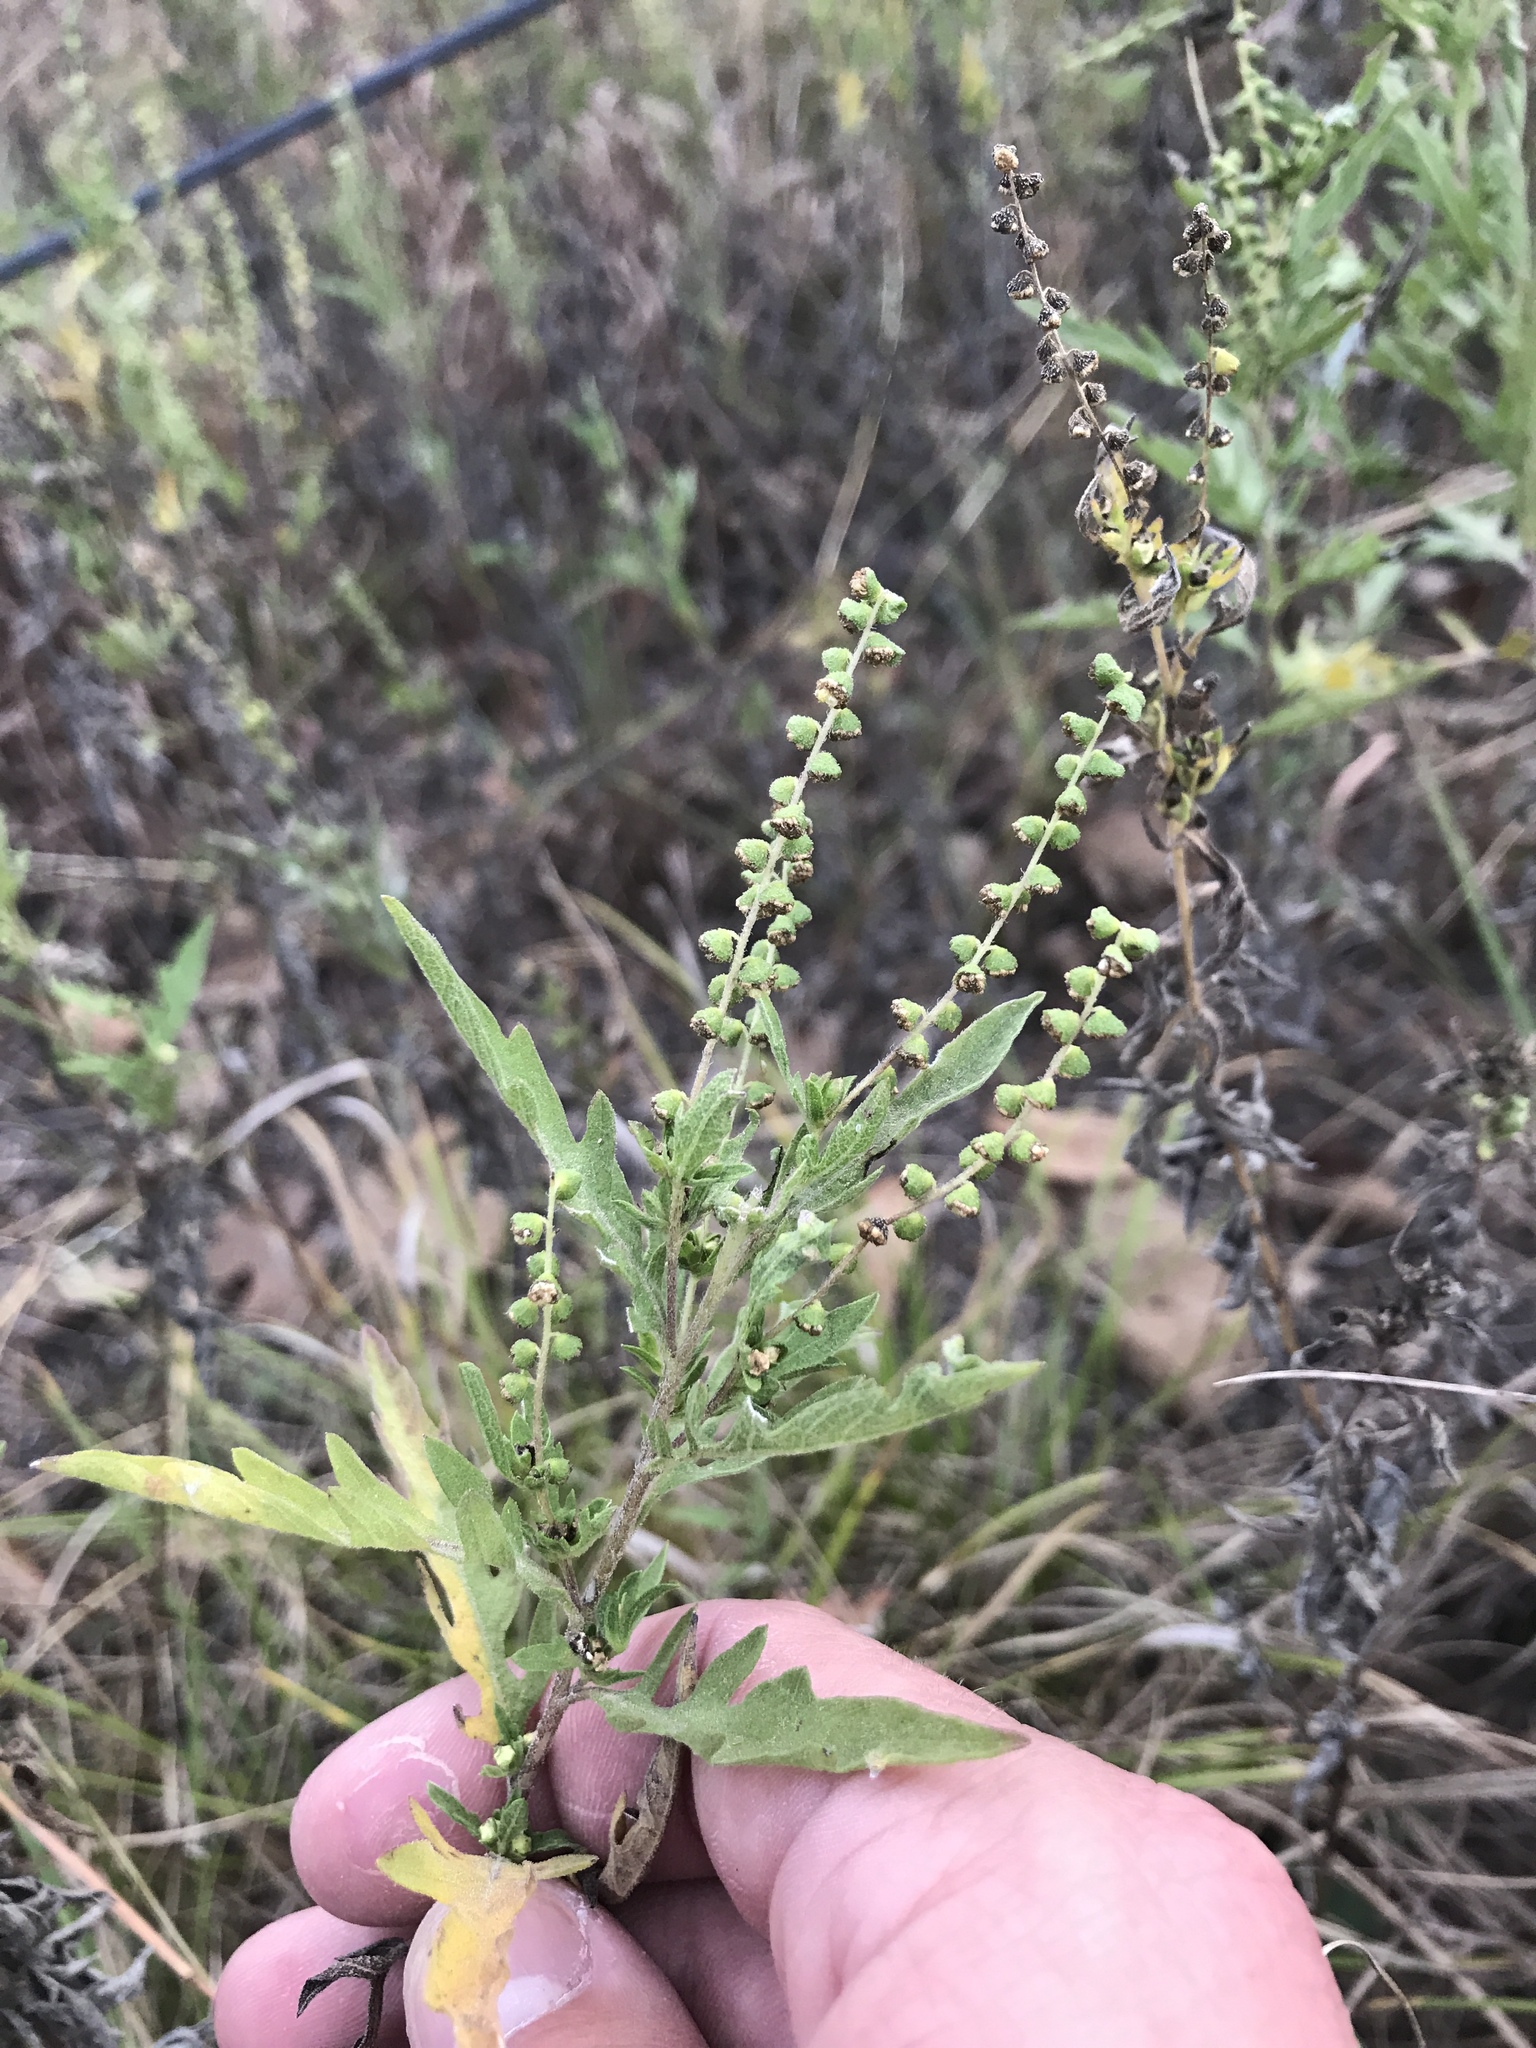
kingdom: Plantae
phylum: Tracheophyta
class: Magnoliopsida
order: Asterales
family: Asteraceae
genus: Ambrosia
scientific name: Ambrosia psilostachya
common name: Perennial ragweed
